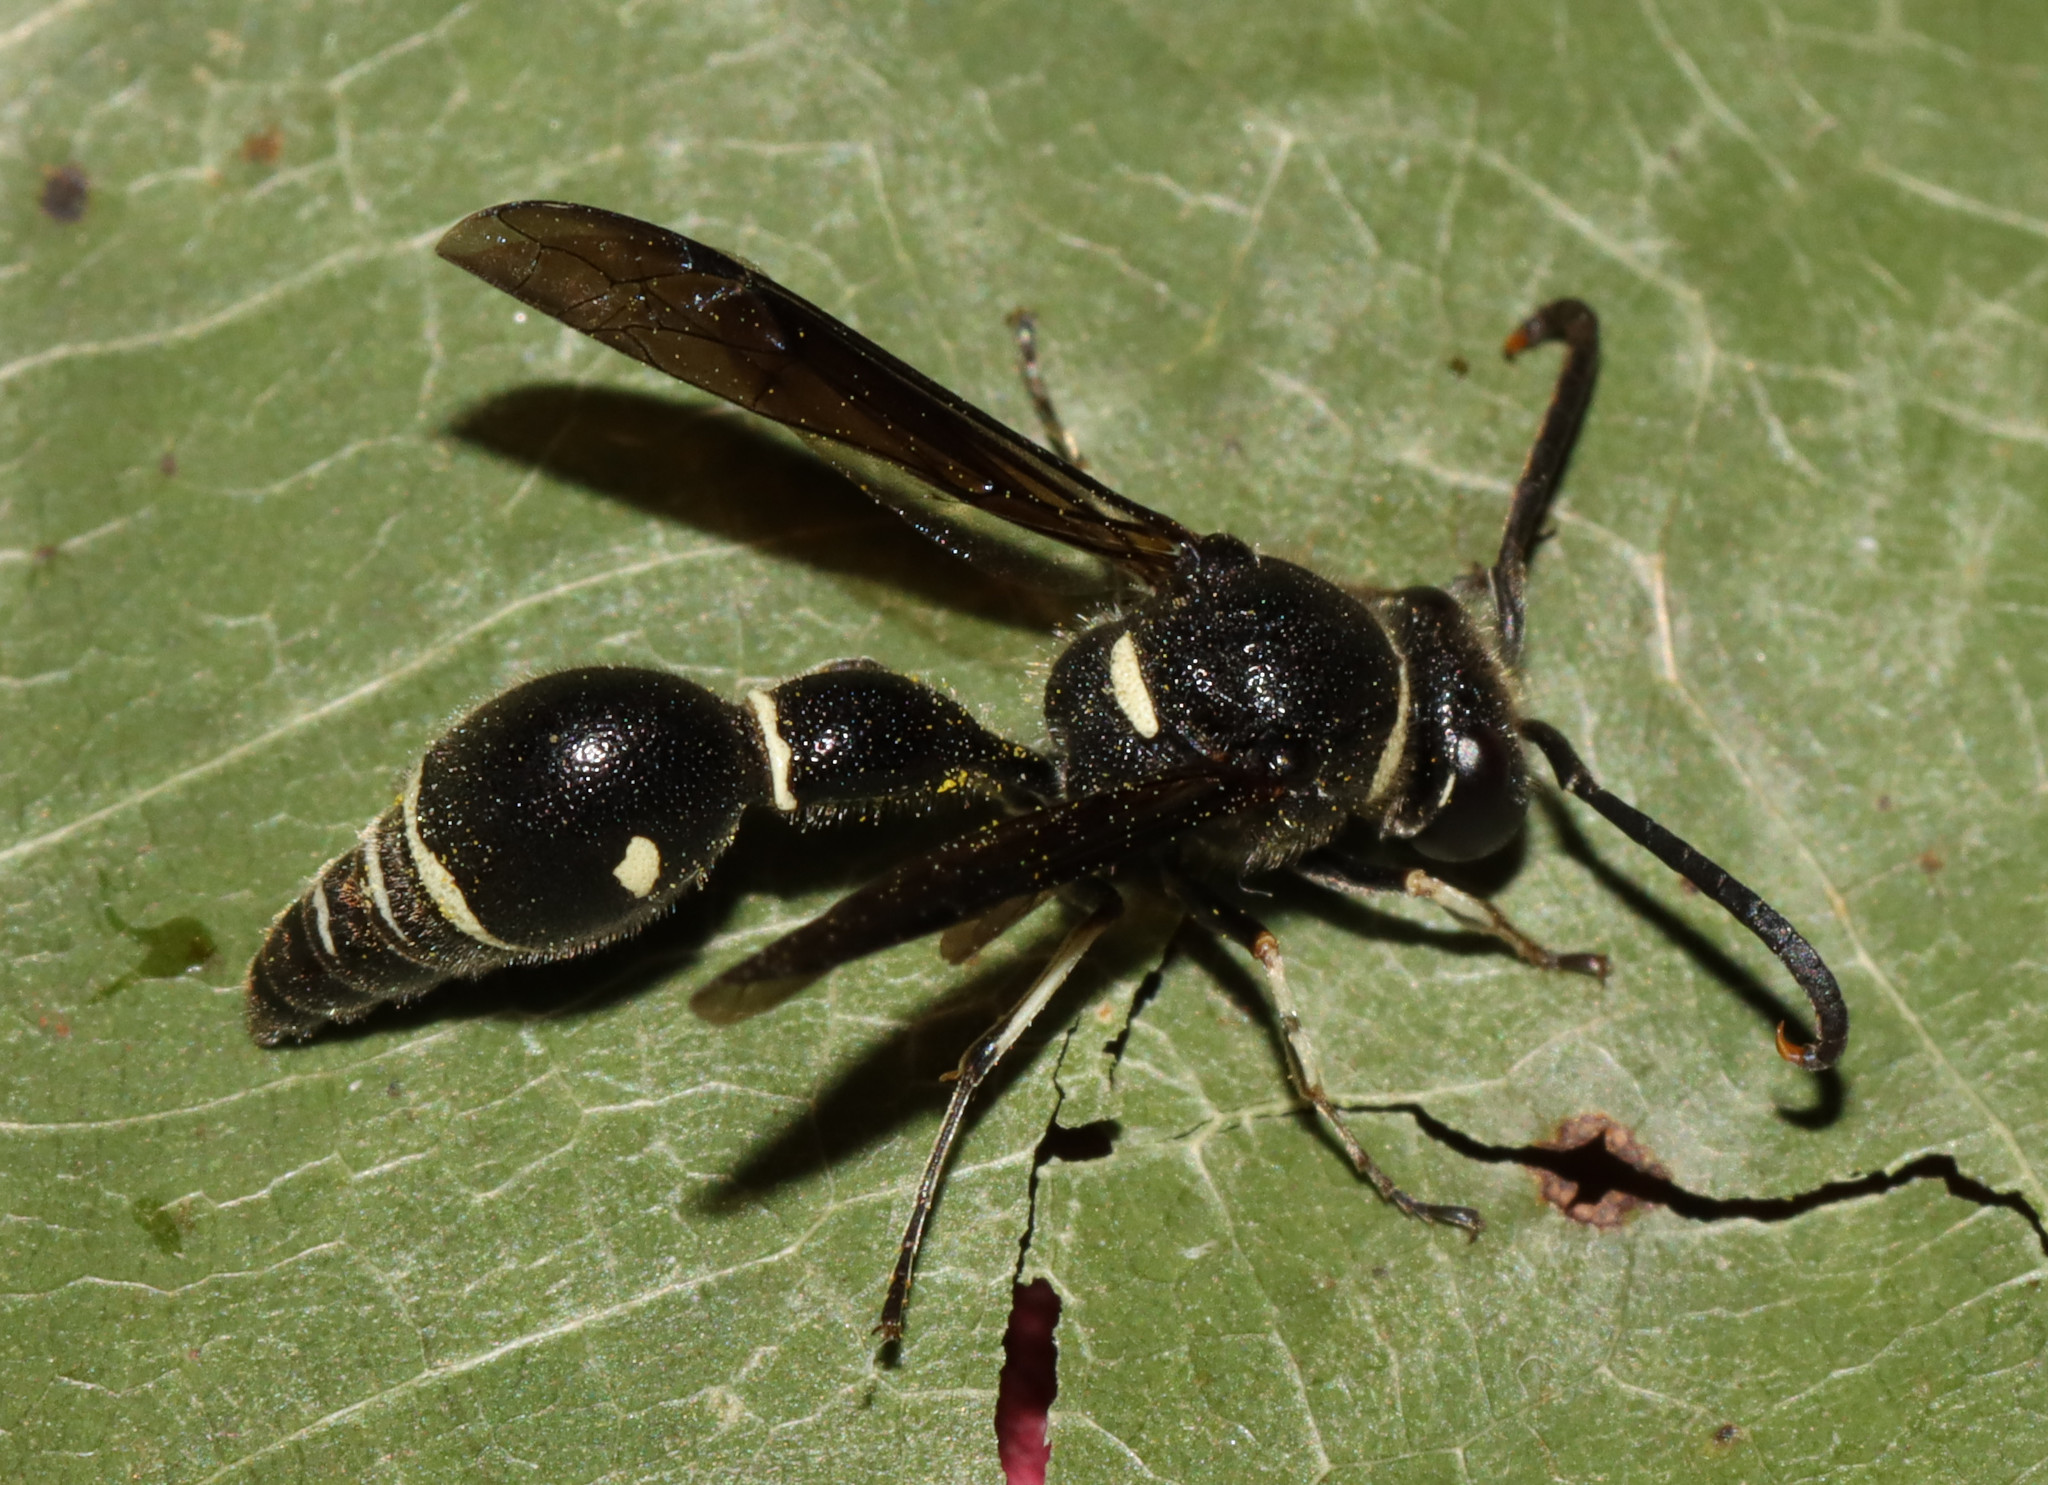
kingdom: Animalia
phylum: Arthropoda
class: Insecta
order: Hymenoptera
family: Vespidae
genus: Eumenes
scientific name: Eumenes fraternus
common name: Fraternal potter wasp
